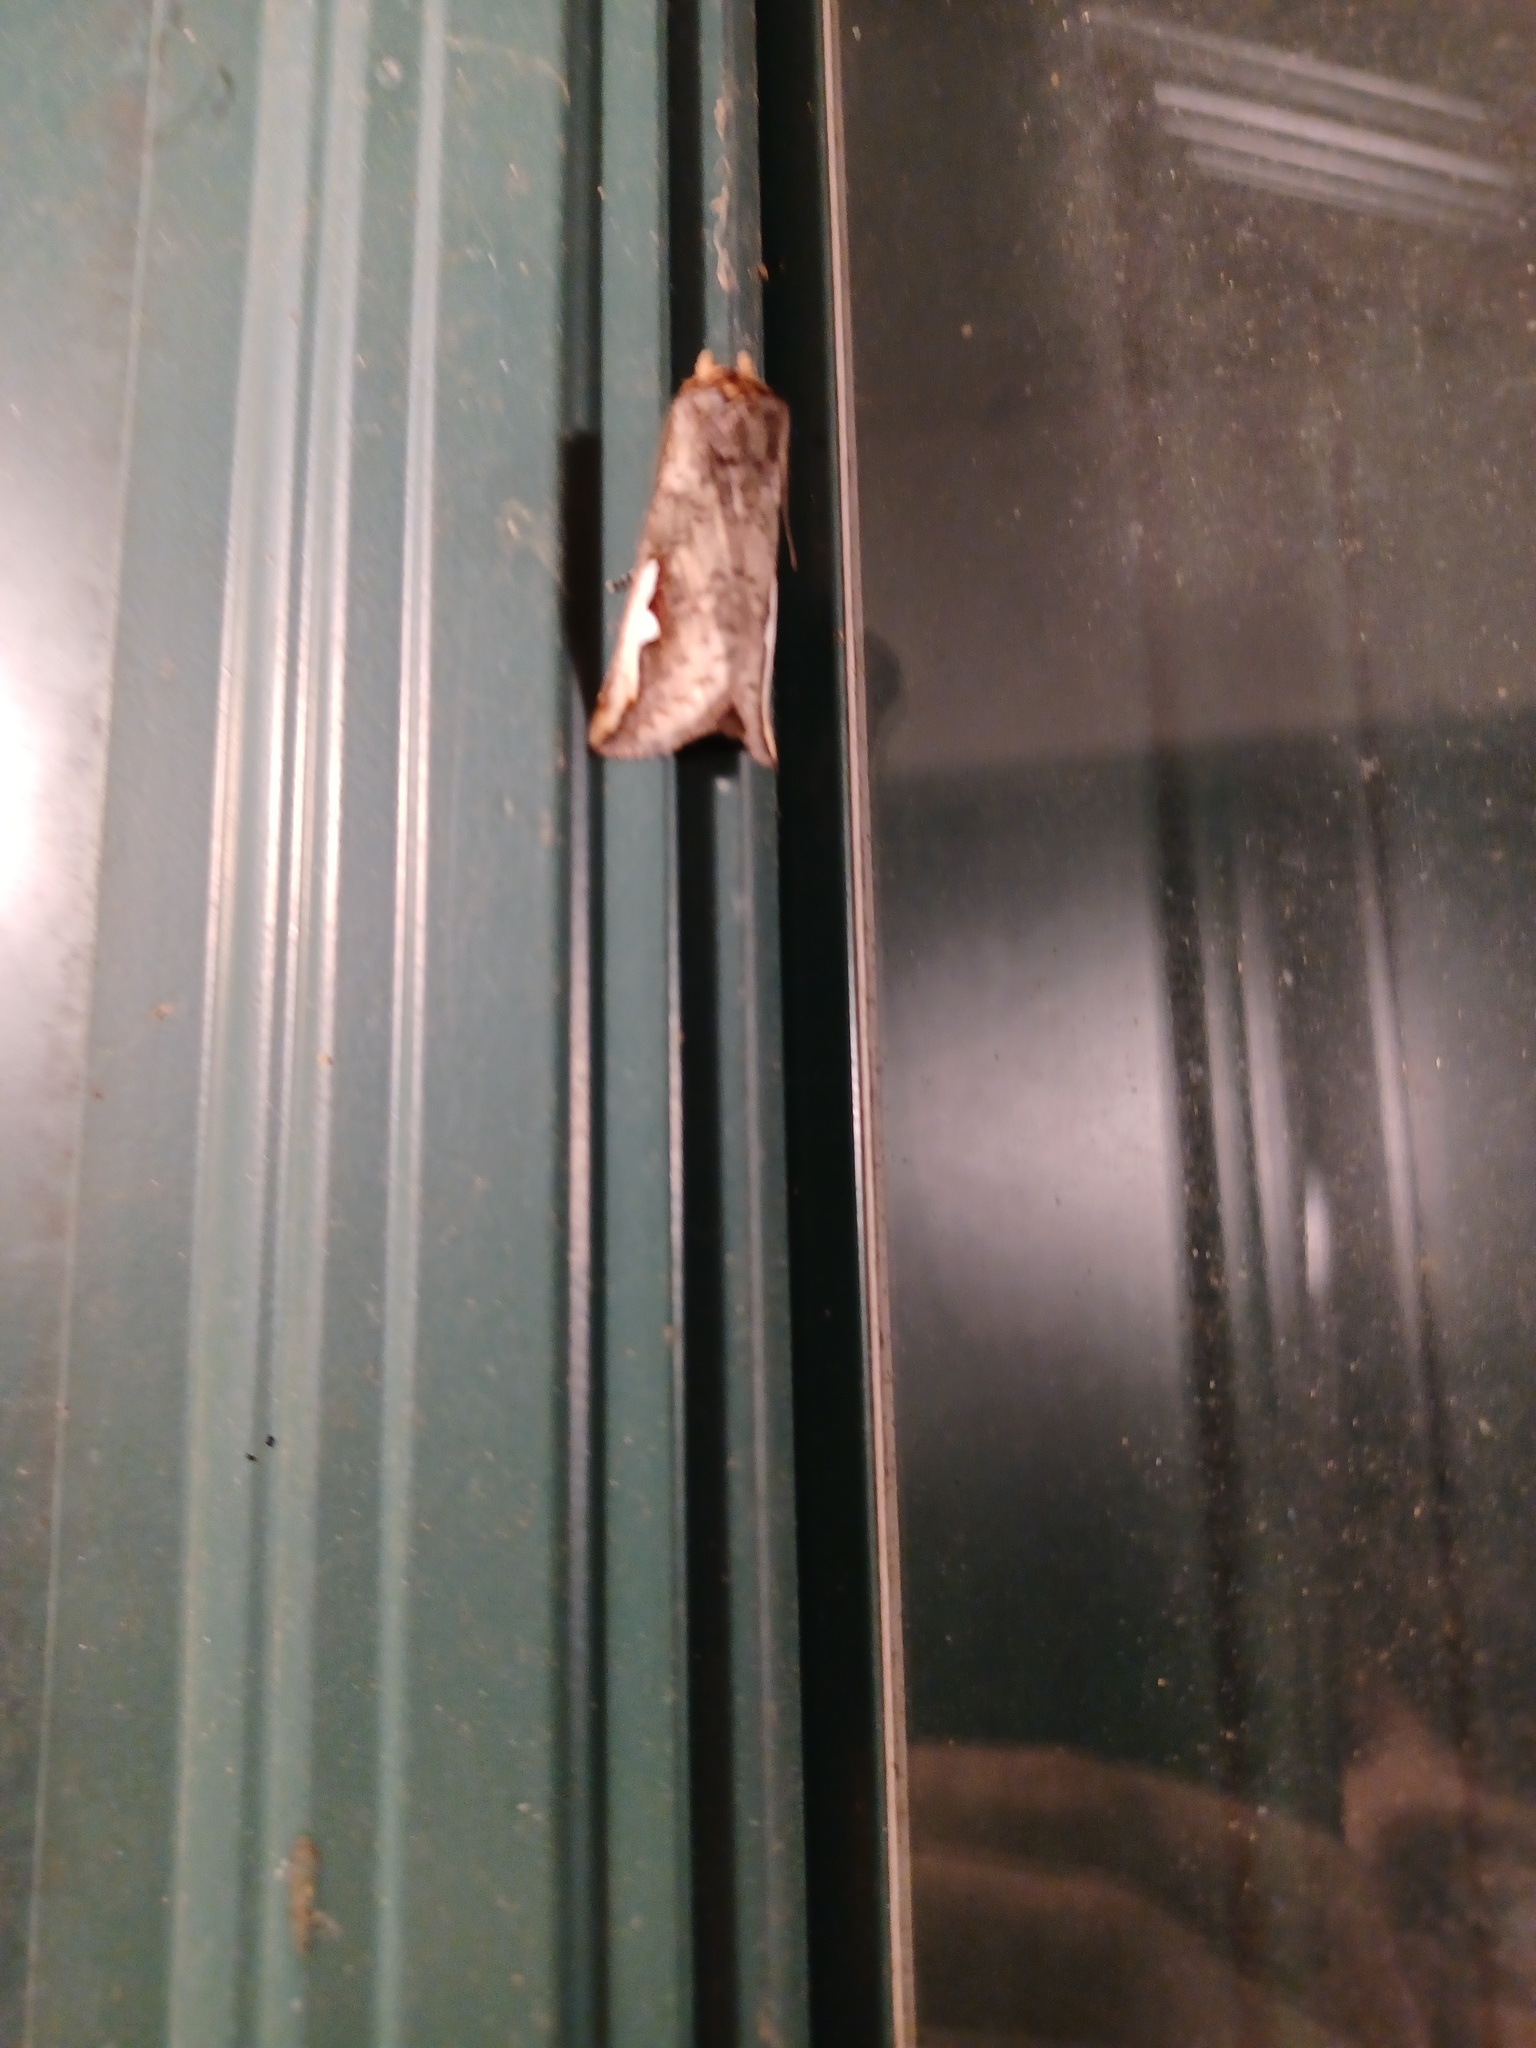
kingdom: Animalia
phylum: Arthropoda
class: Insecta
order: Lepidoptera
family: Notodontidae
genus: Symmerista
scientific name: Symmerista albifrons
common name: White-headed prominent
